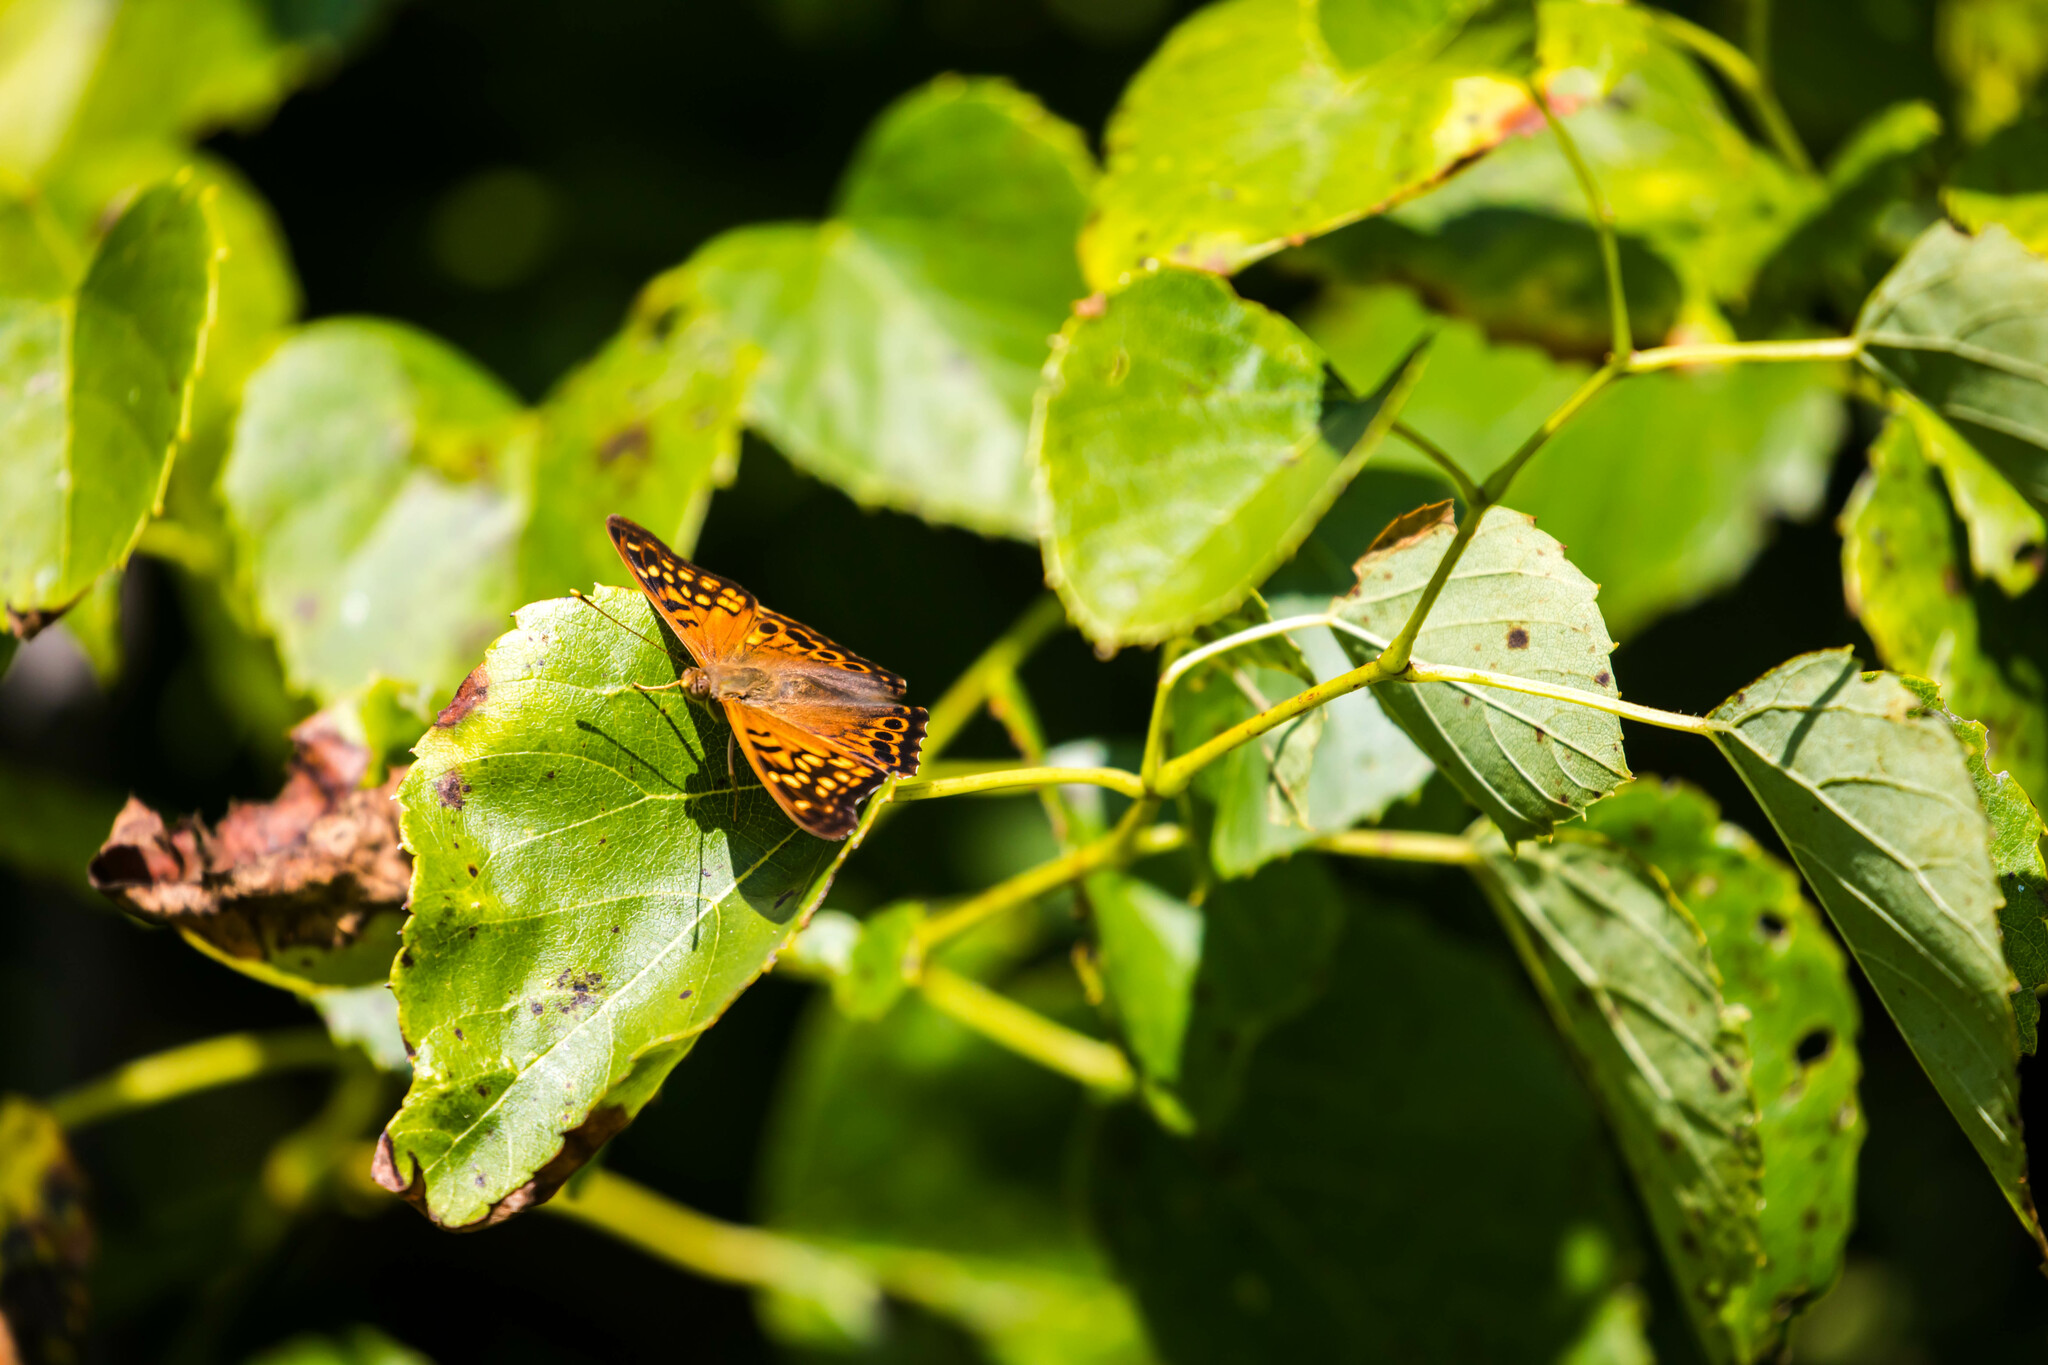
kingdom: Animalia
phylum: Arthropoda
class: Insecta
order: Lepidoptera
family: Nymphalidae
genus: Asterocampa
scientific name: Asterocampa clyton
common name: Tawny emperor
